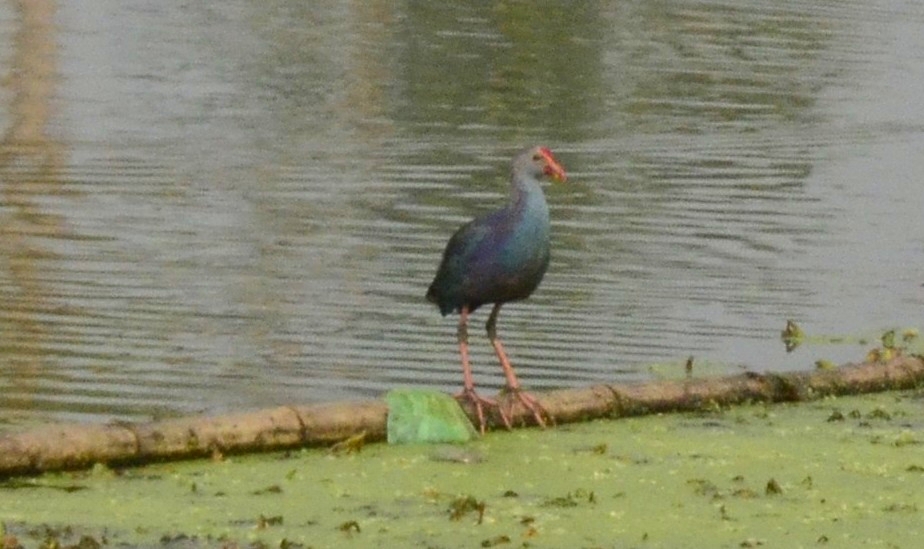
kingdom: Animalia
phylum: Chordata
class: Aves
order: Gruiformes
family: Rallidae
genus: Porphyrio
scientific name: Porphyrio porphyrio
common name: Purple swamphen
